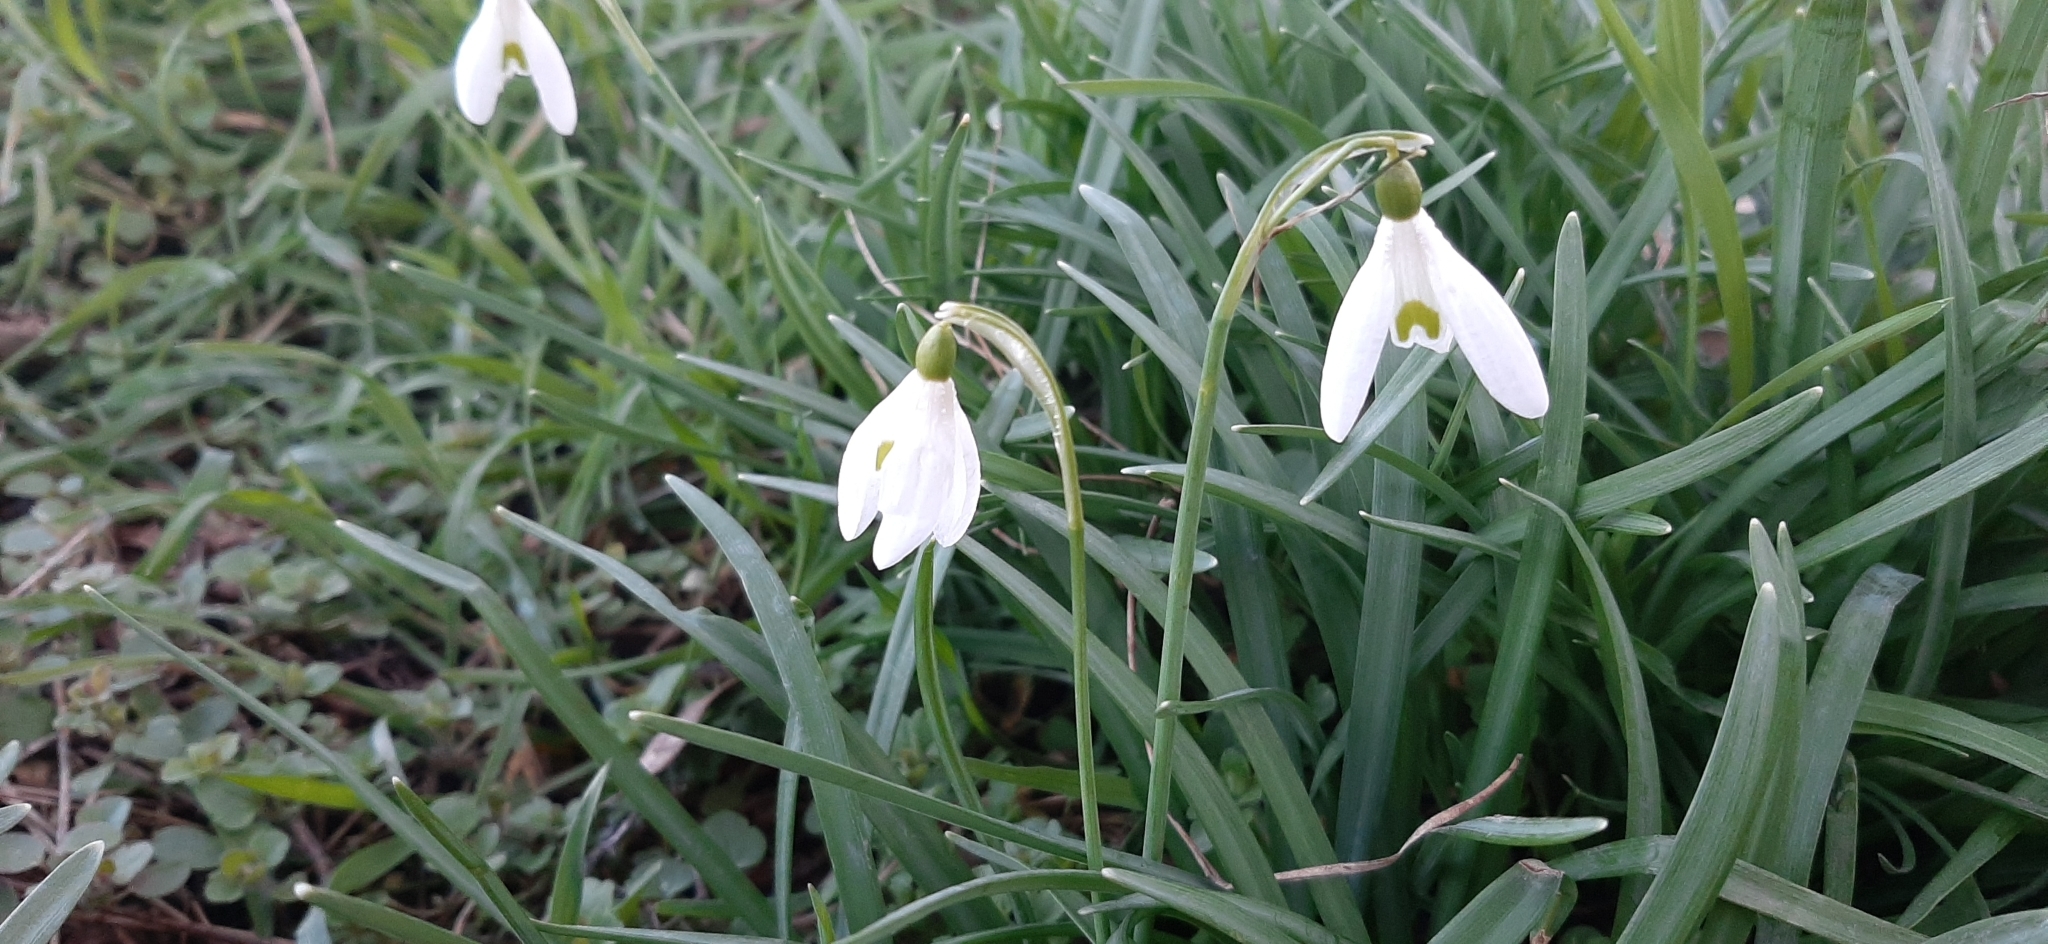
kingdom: Plantae
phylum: Tracheophyta
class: Liliopsida
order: Asparagales
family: Amaryllidaceae
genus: Galanthus
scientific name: Galanthus nivalis
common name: Snowdrop
